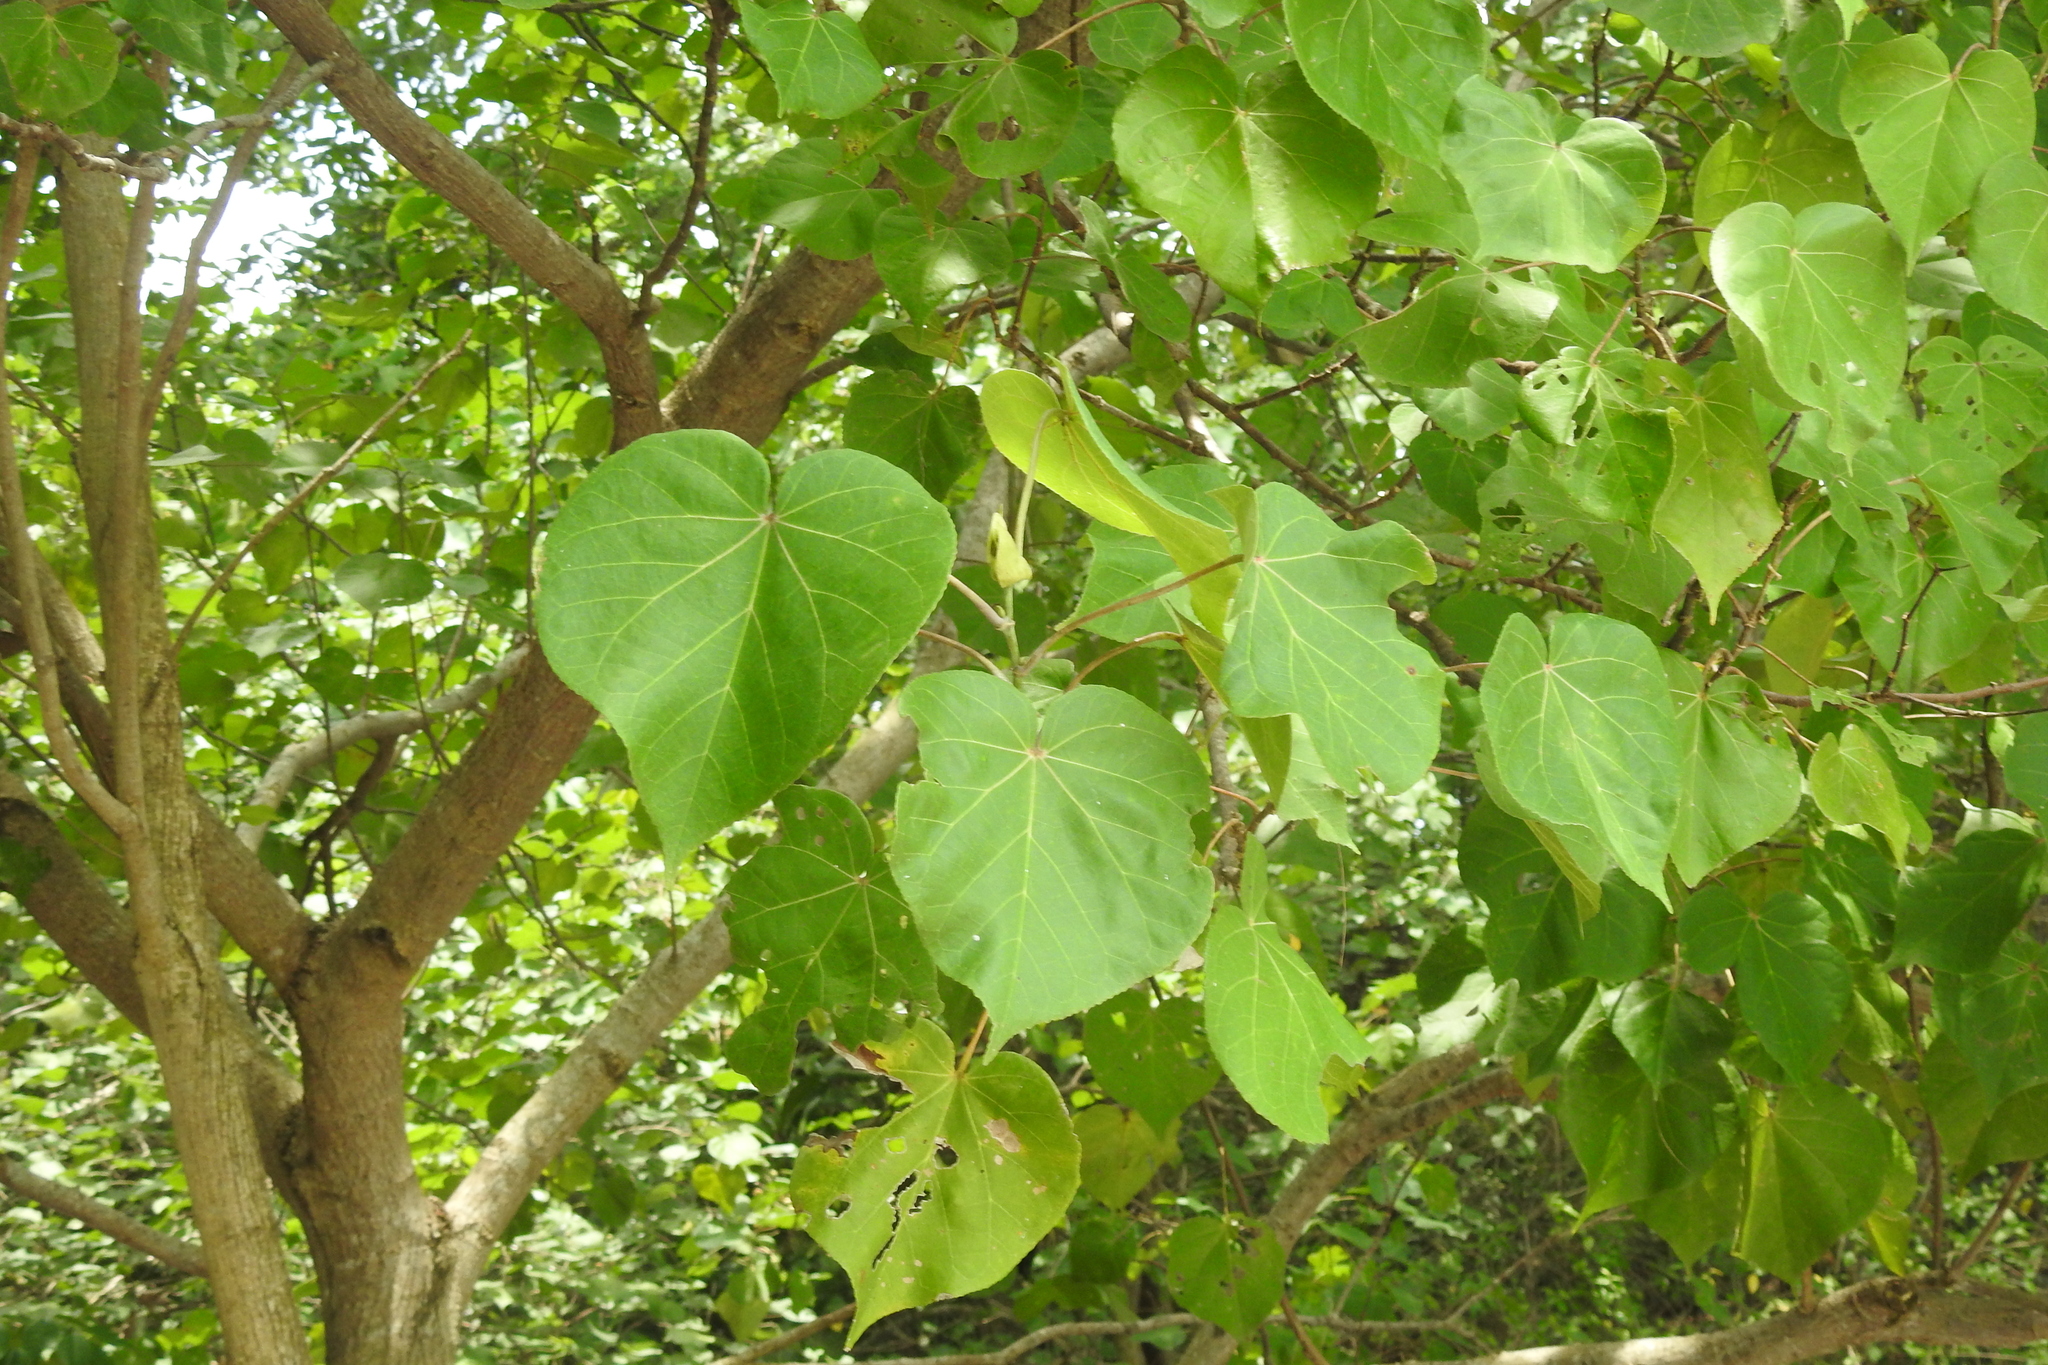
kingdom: Plantae
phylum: Tracheophyta
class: Magnoliopsida
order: Malvales
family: Malvaceae
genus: Talipariti
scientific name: Talipariti tiliaceum
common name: Sea hibiscus
